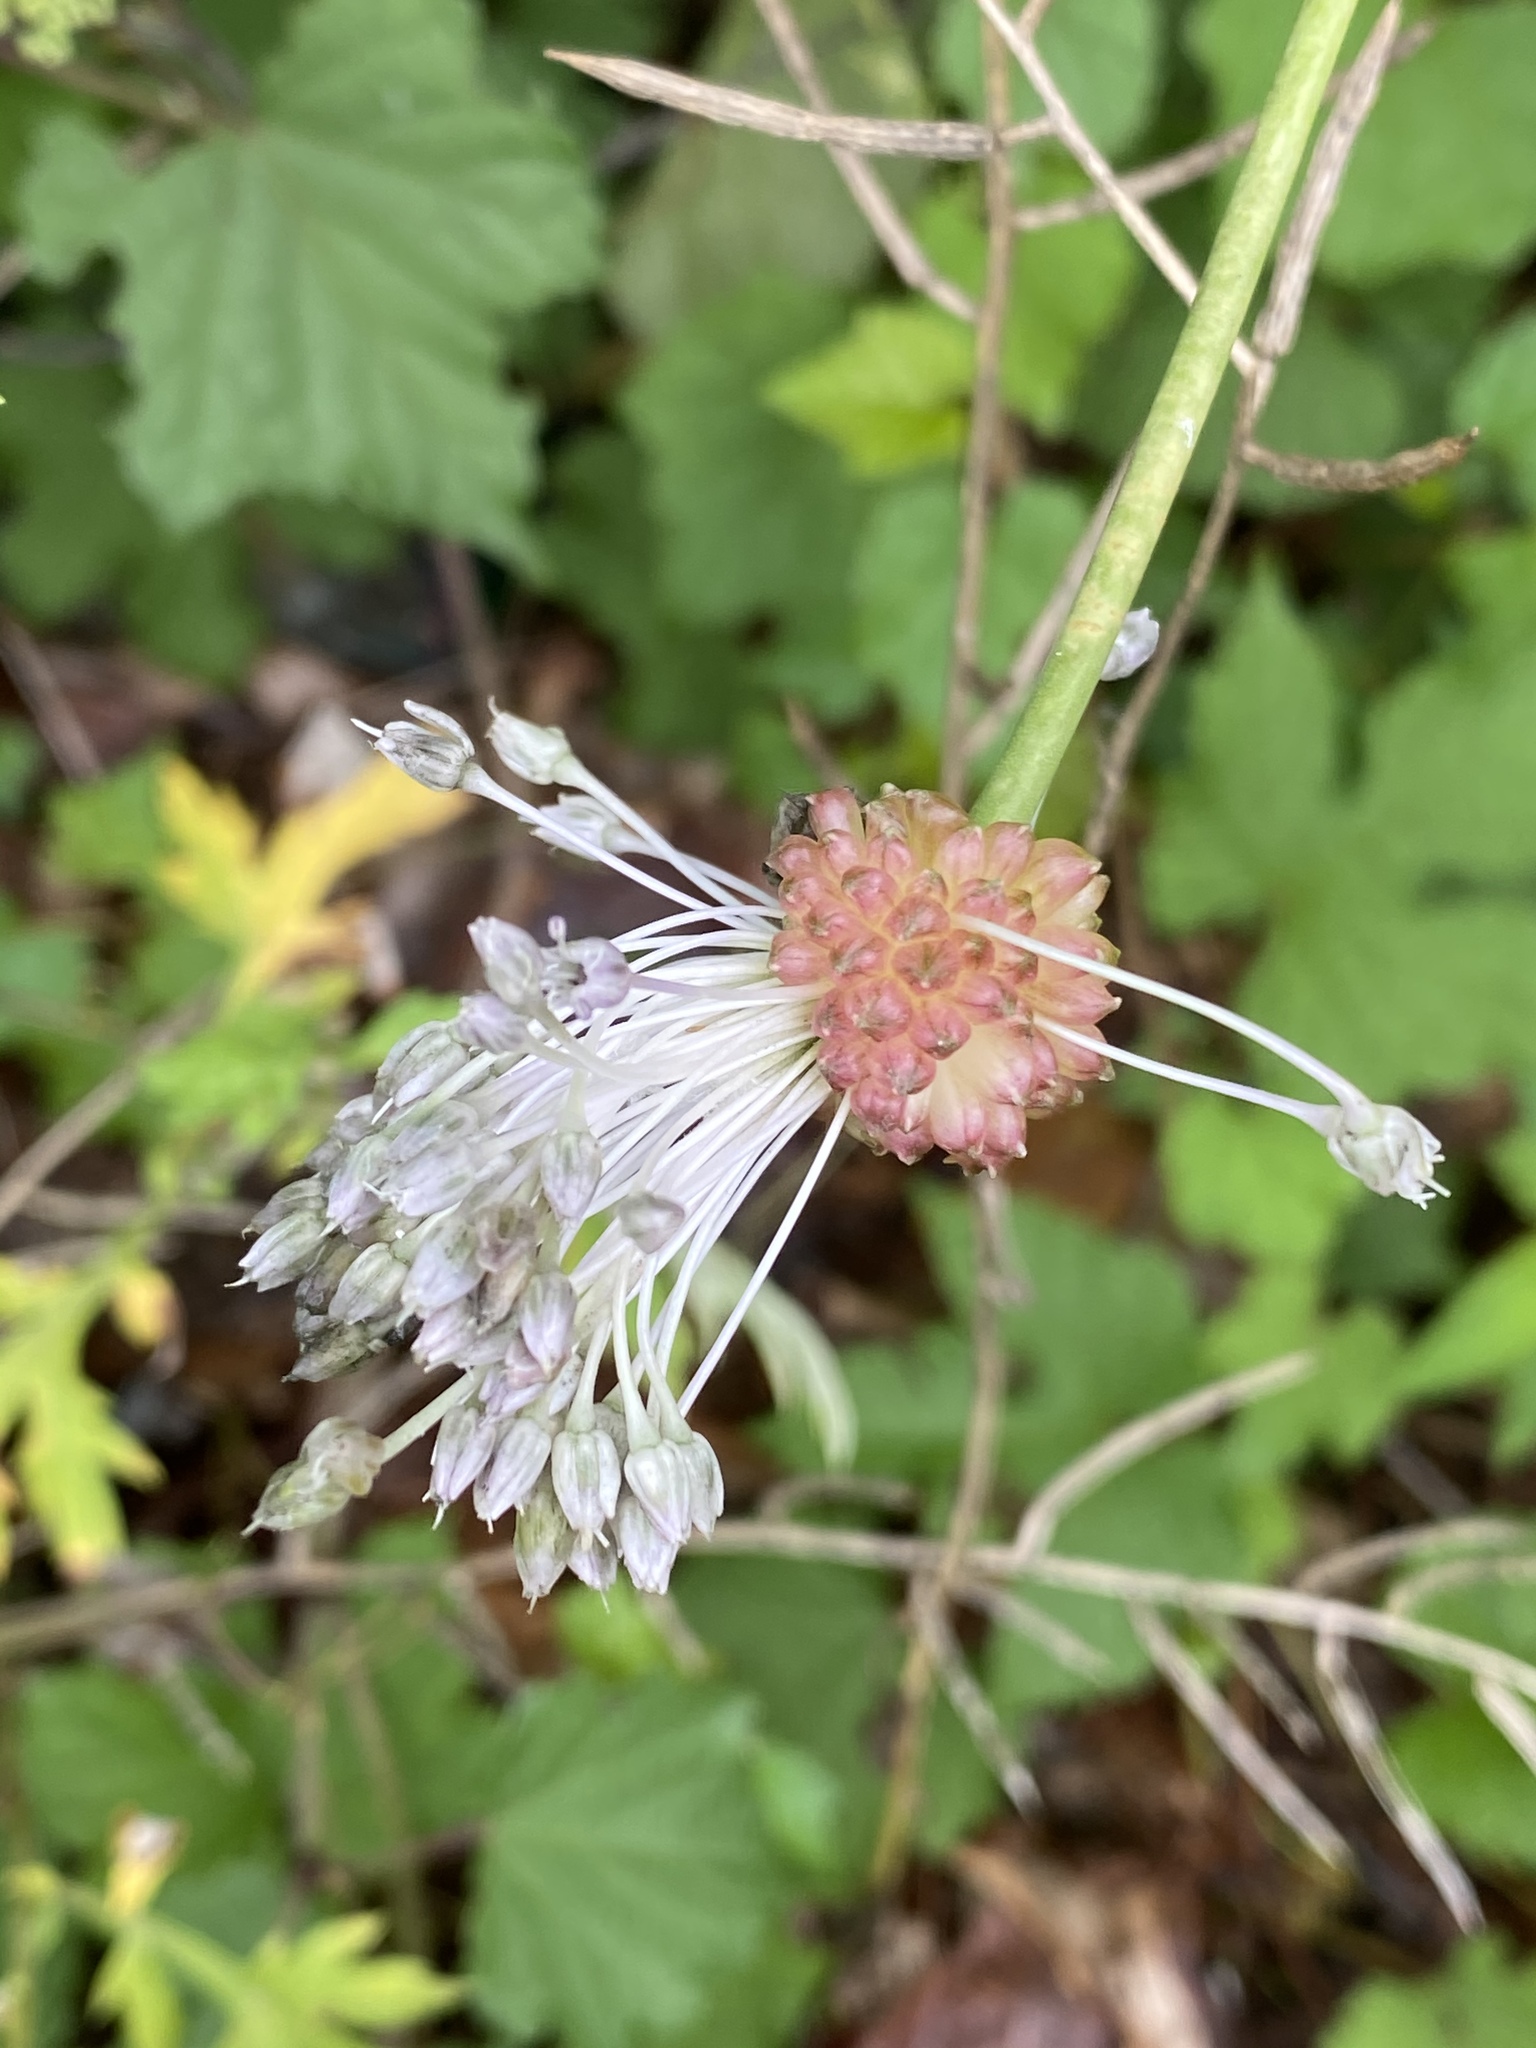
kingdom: Plantae
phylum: Tracheophyta
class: Liliopsida
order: Asparagales
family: Amaryllidaceae
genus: Allium
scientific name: Allium vineale
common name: Crow garlic
